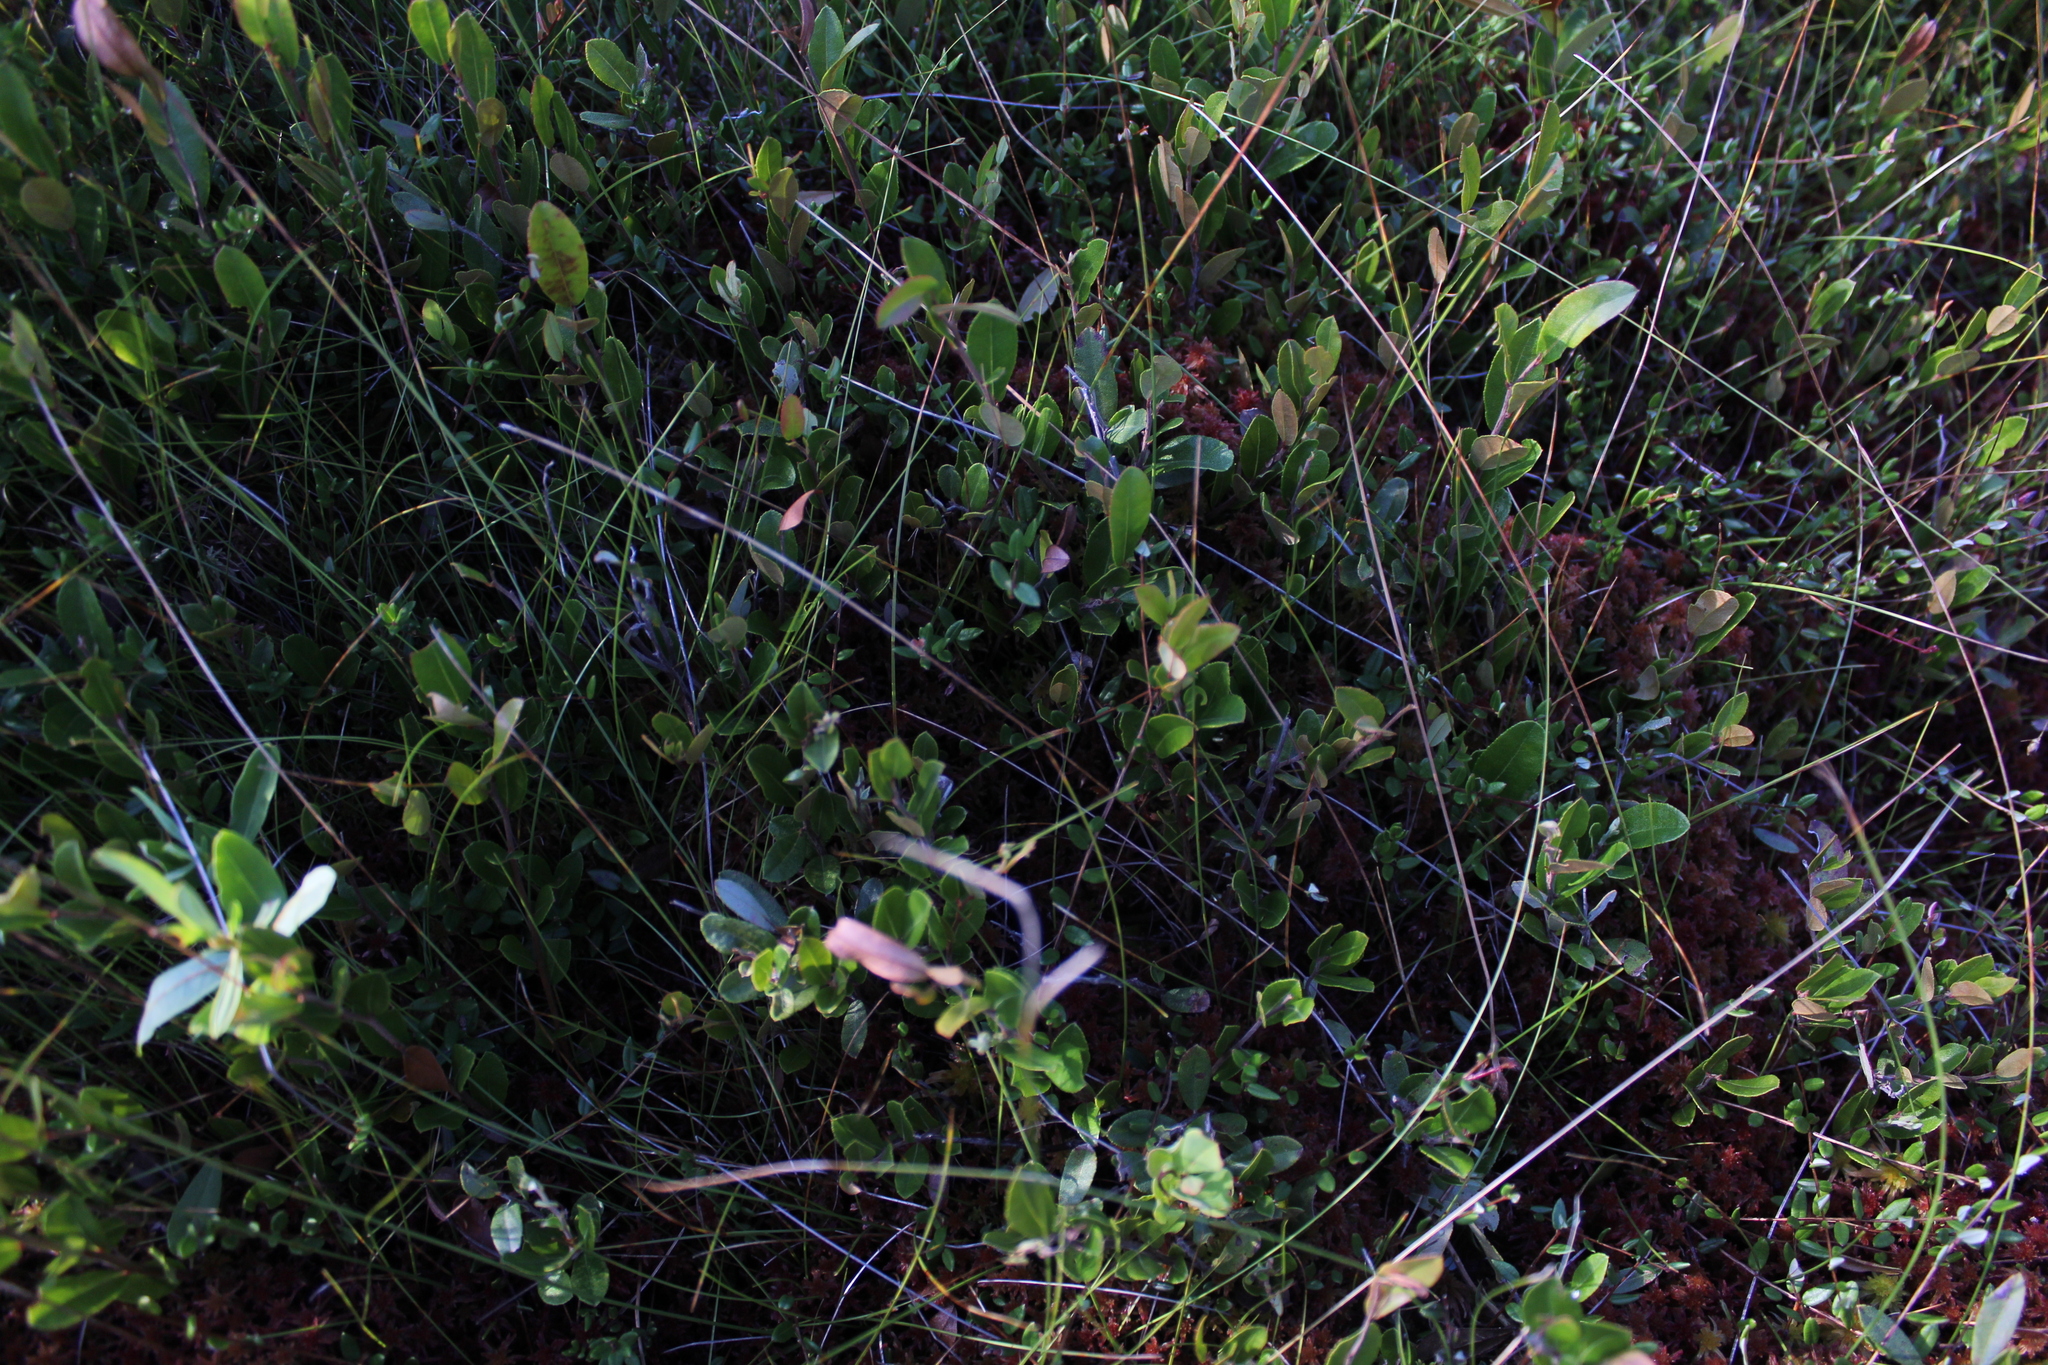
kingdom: Plantae
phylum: Tracheophyta
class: Liliopsida
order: Poales
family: Cyperaceae
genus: Carex
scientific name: Carex trisperma
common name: Three-seeded sedge
